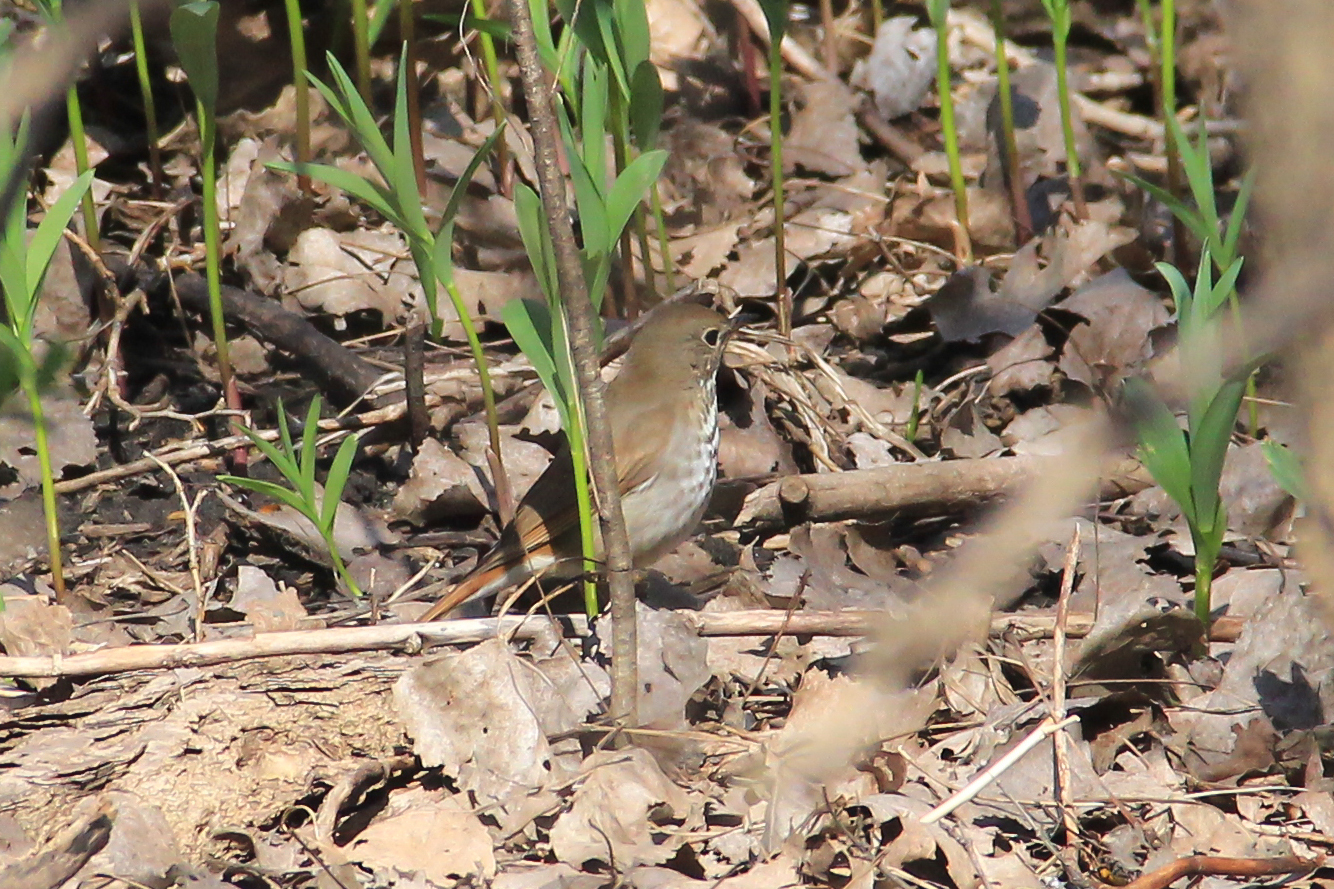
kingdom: Animalia
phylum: Chordata
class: Aves
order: Passeriformes
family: Turdidae
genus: Catharus
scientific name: Catharus guttatus
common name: Hermit thrush
